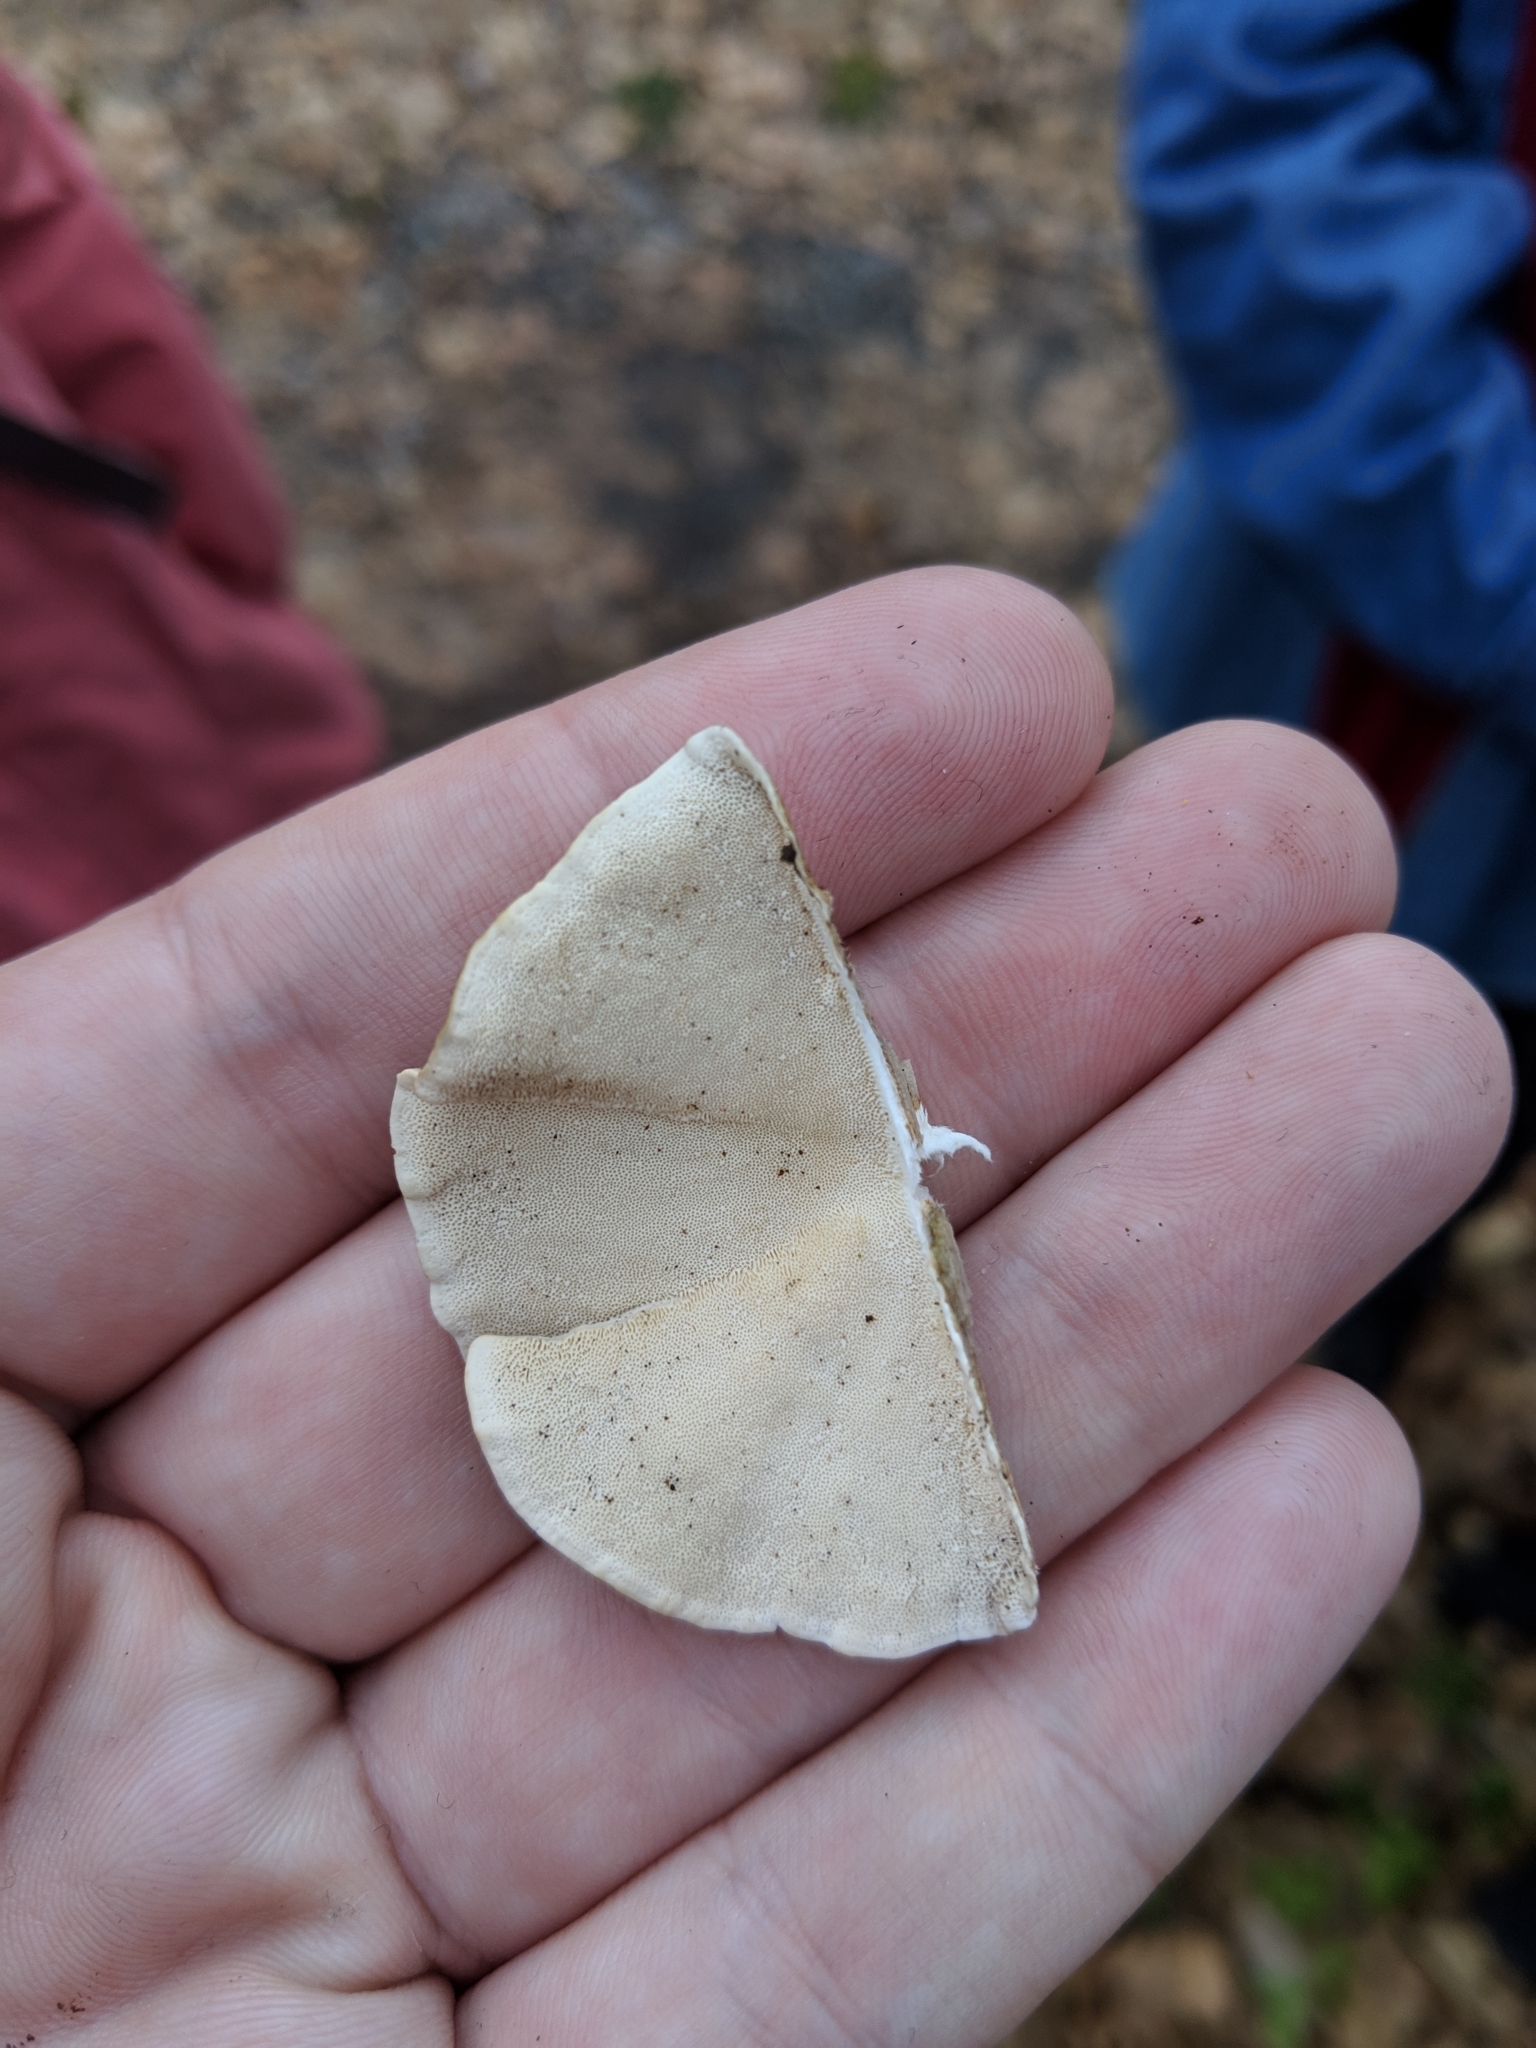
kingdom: Fungi
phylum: Basidiomycota
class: Agaricomycetes
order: Polyporales
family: Polyporaceae
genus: Trametes
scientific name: Trametes versicolor
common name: Turkeytail
